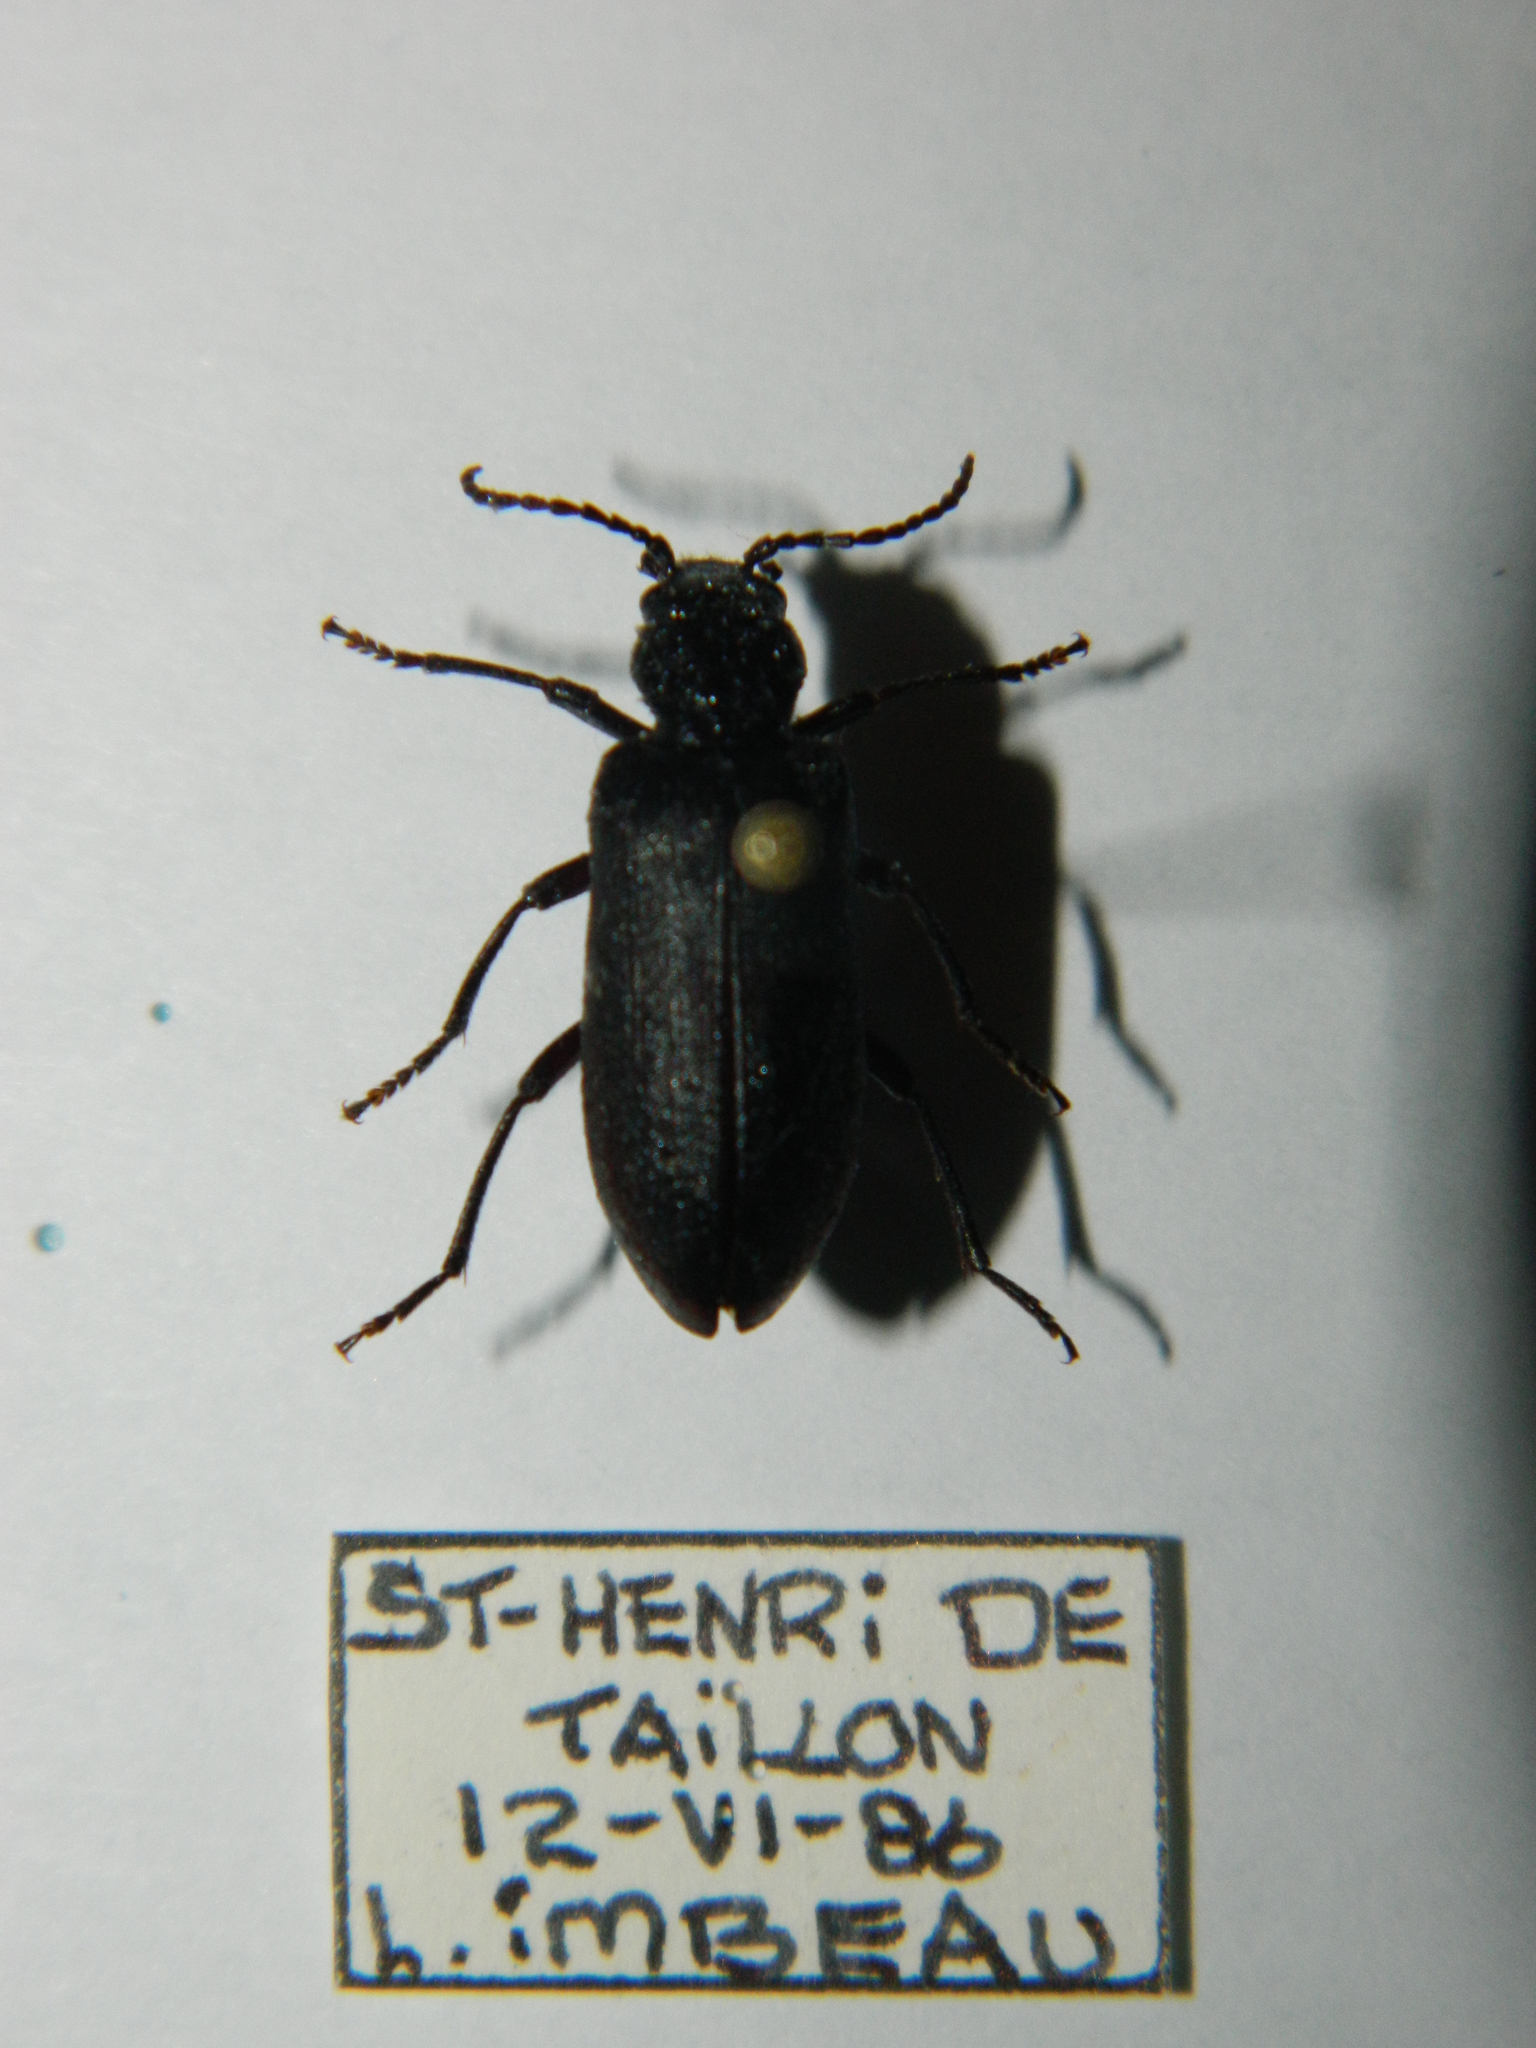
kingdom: Animalia
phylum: Arthropoda
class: Insecta
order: Coleoptera
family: Oedemeridae
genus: Ditylus
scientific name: Ditylus caeruleus
